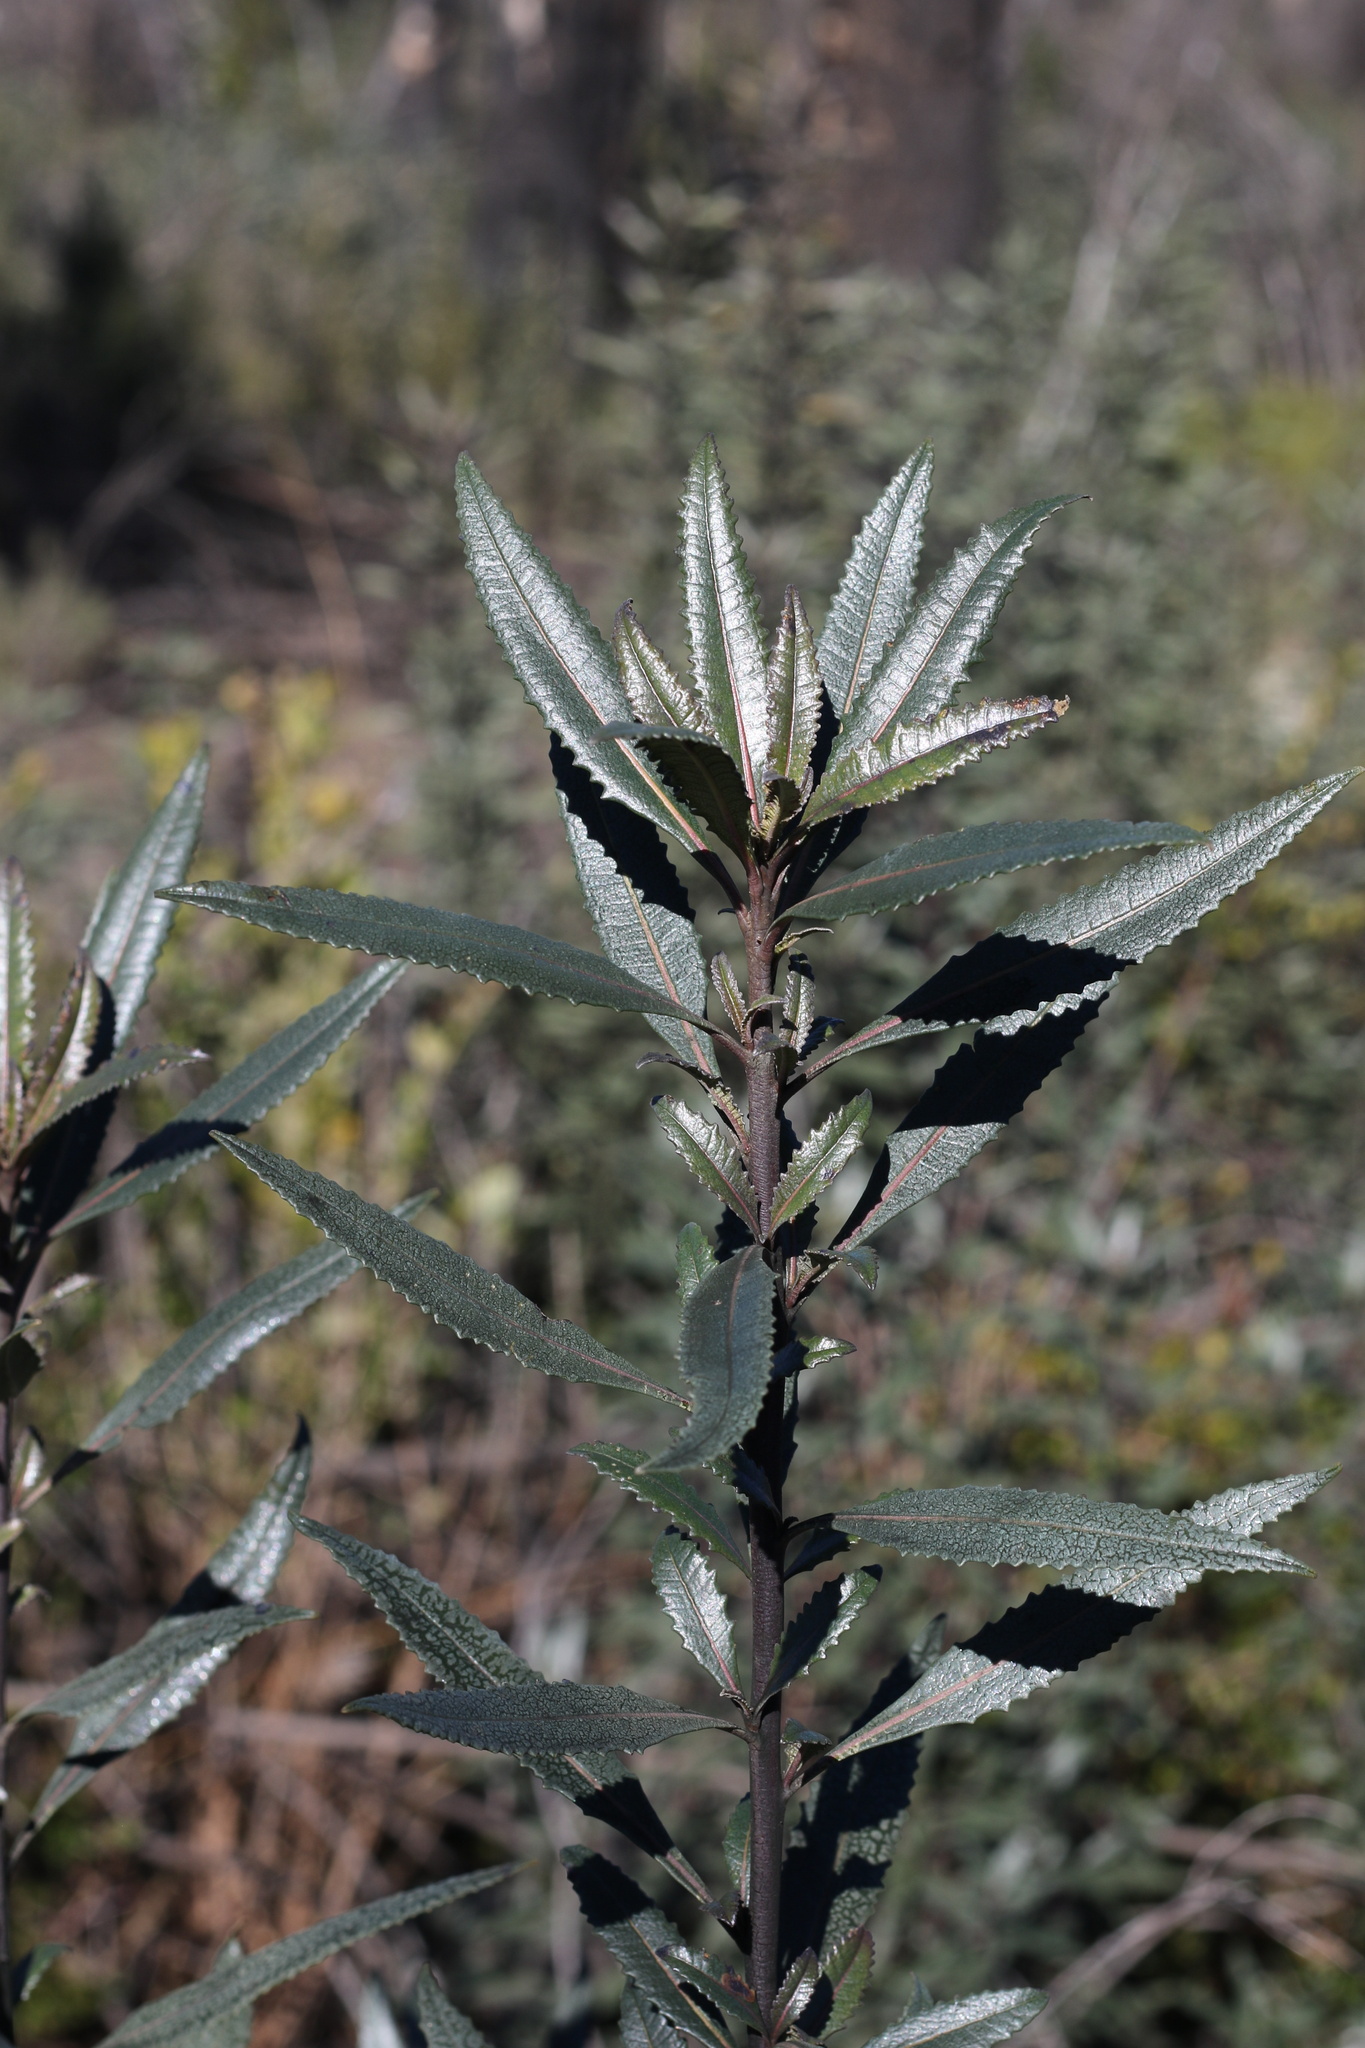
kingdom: Plantae
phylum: Tracheophyta
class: Magnoliopsida
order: Boraginales
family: Namaceae
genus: Eriodictyon
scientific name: Eriodictyon californicum
